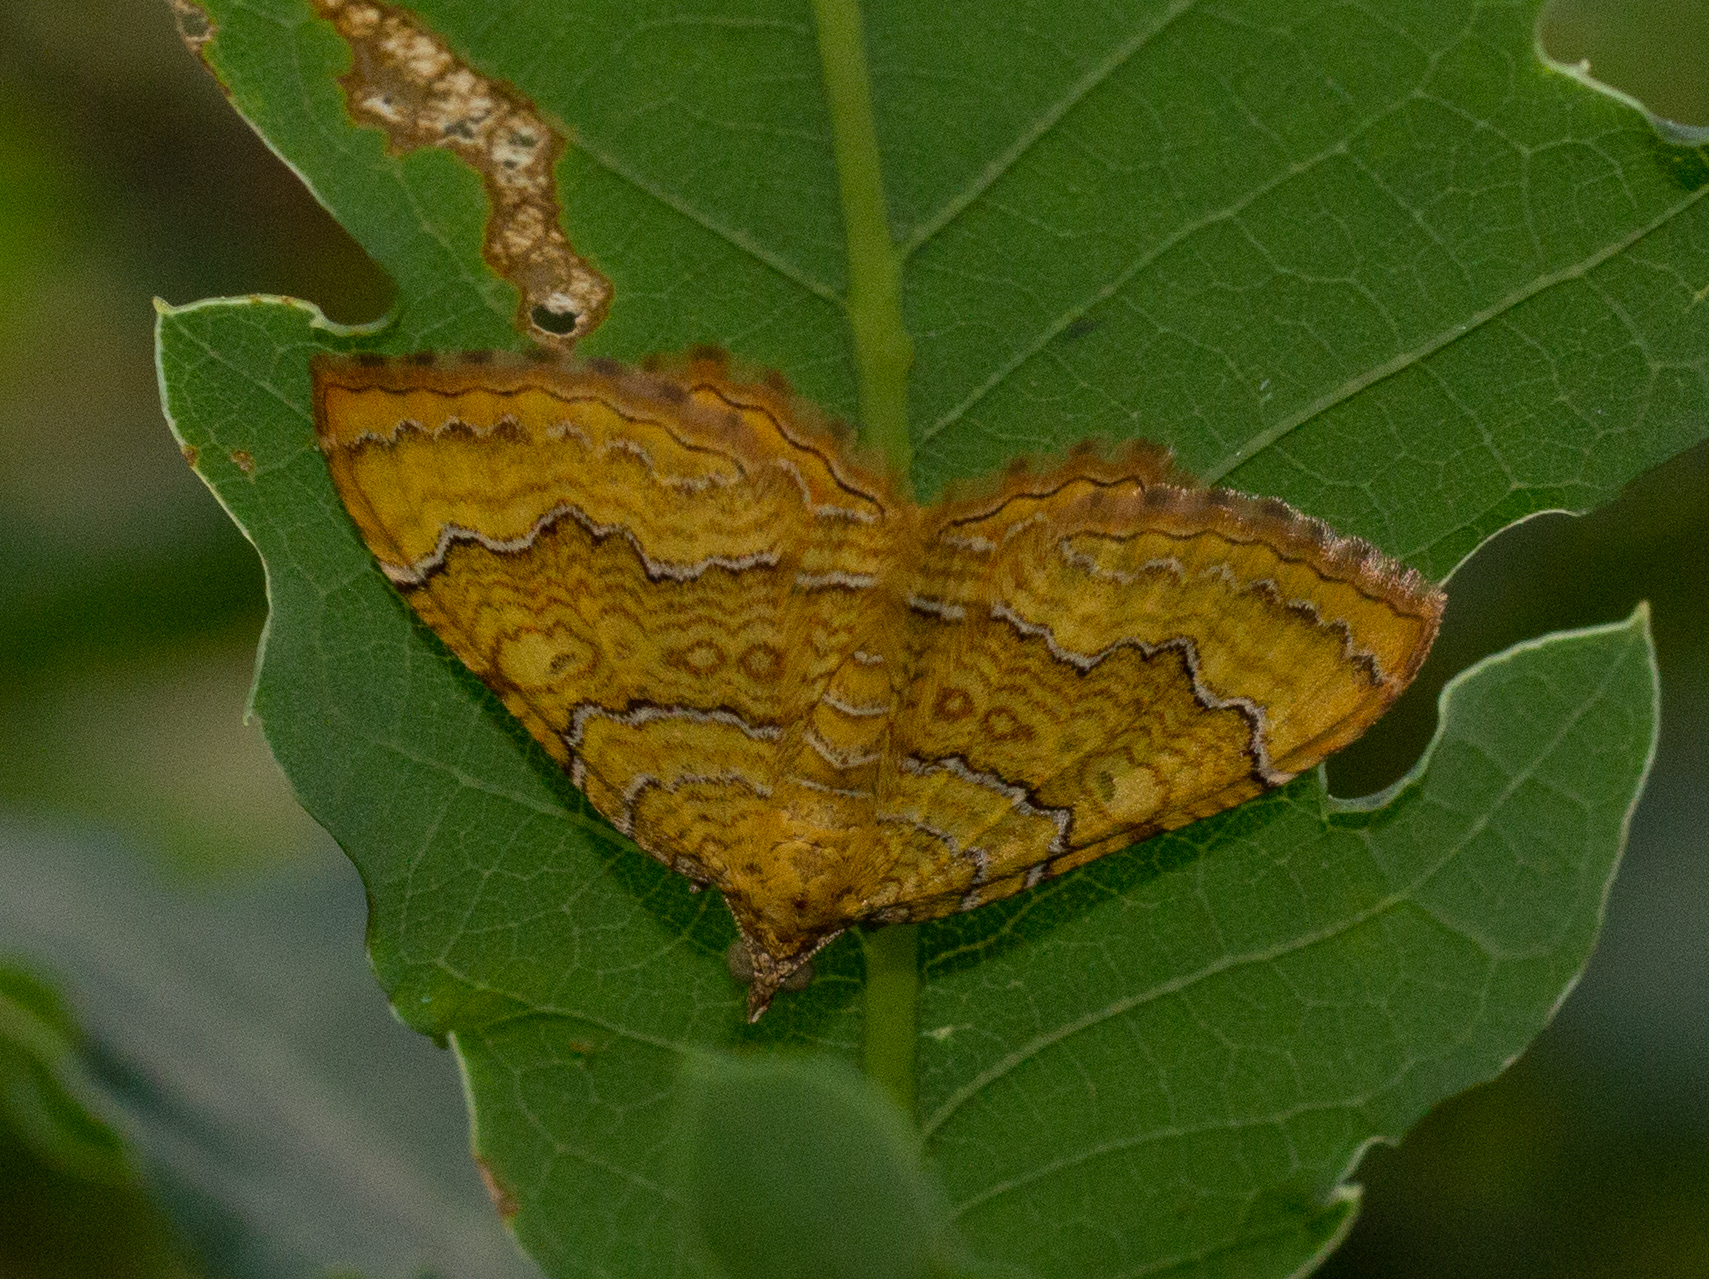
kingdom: Animalia
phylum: Arthropoda
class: Insecta
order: Lepidoptera
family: Geometridae
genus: Camptogramma
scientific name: Camptogramma bilineata
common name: Yellow shell
